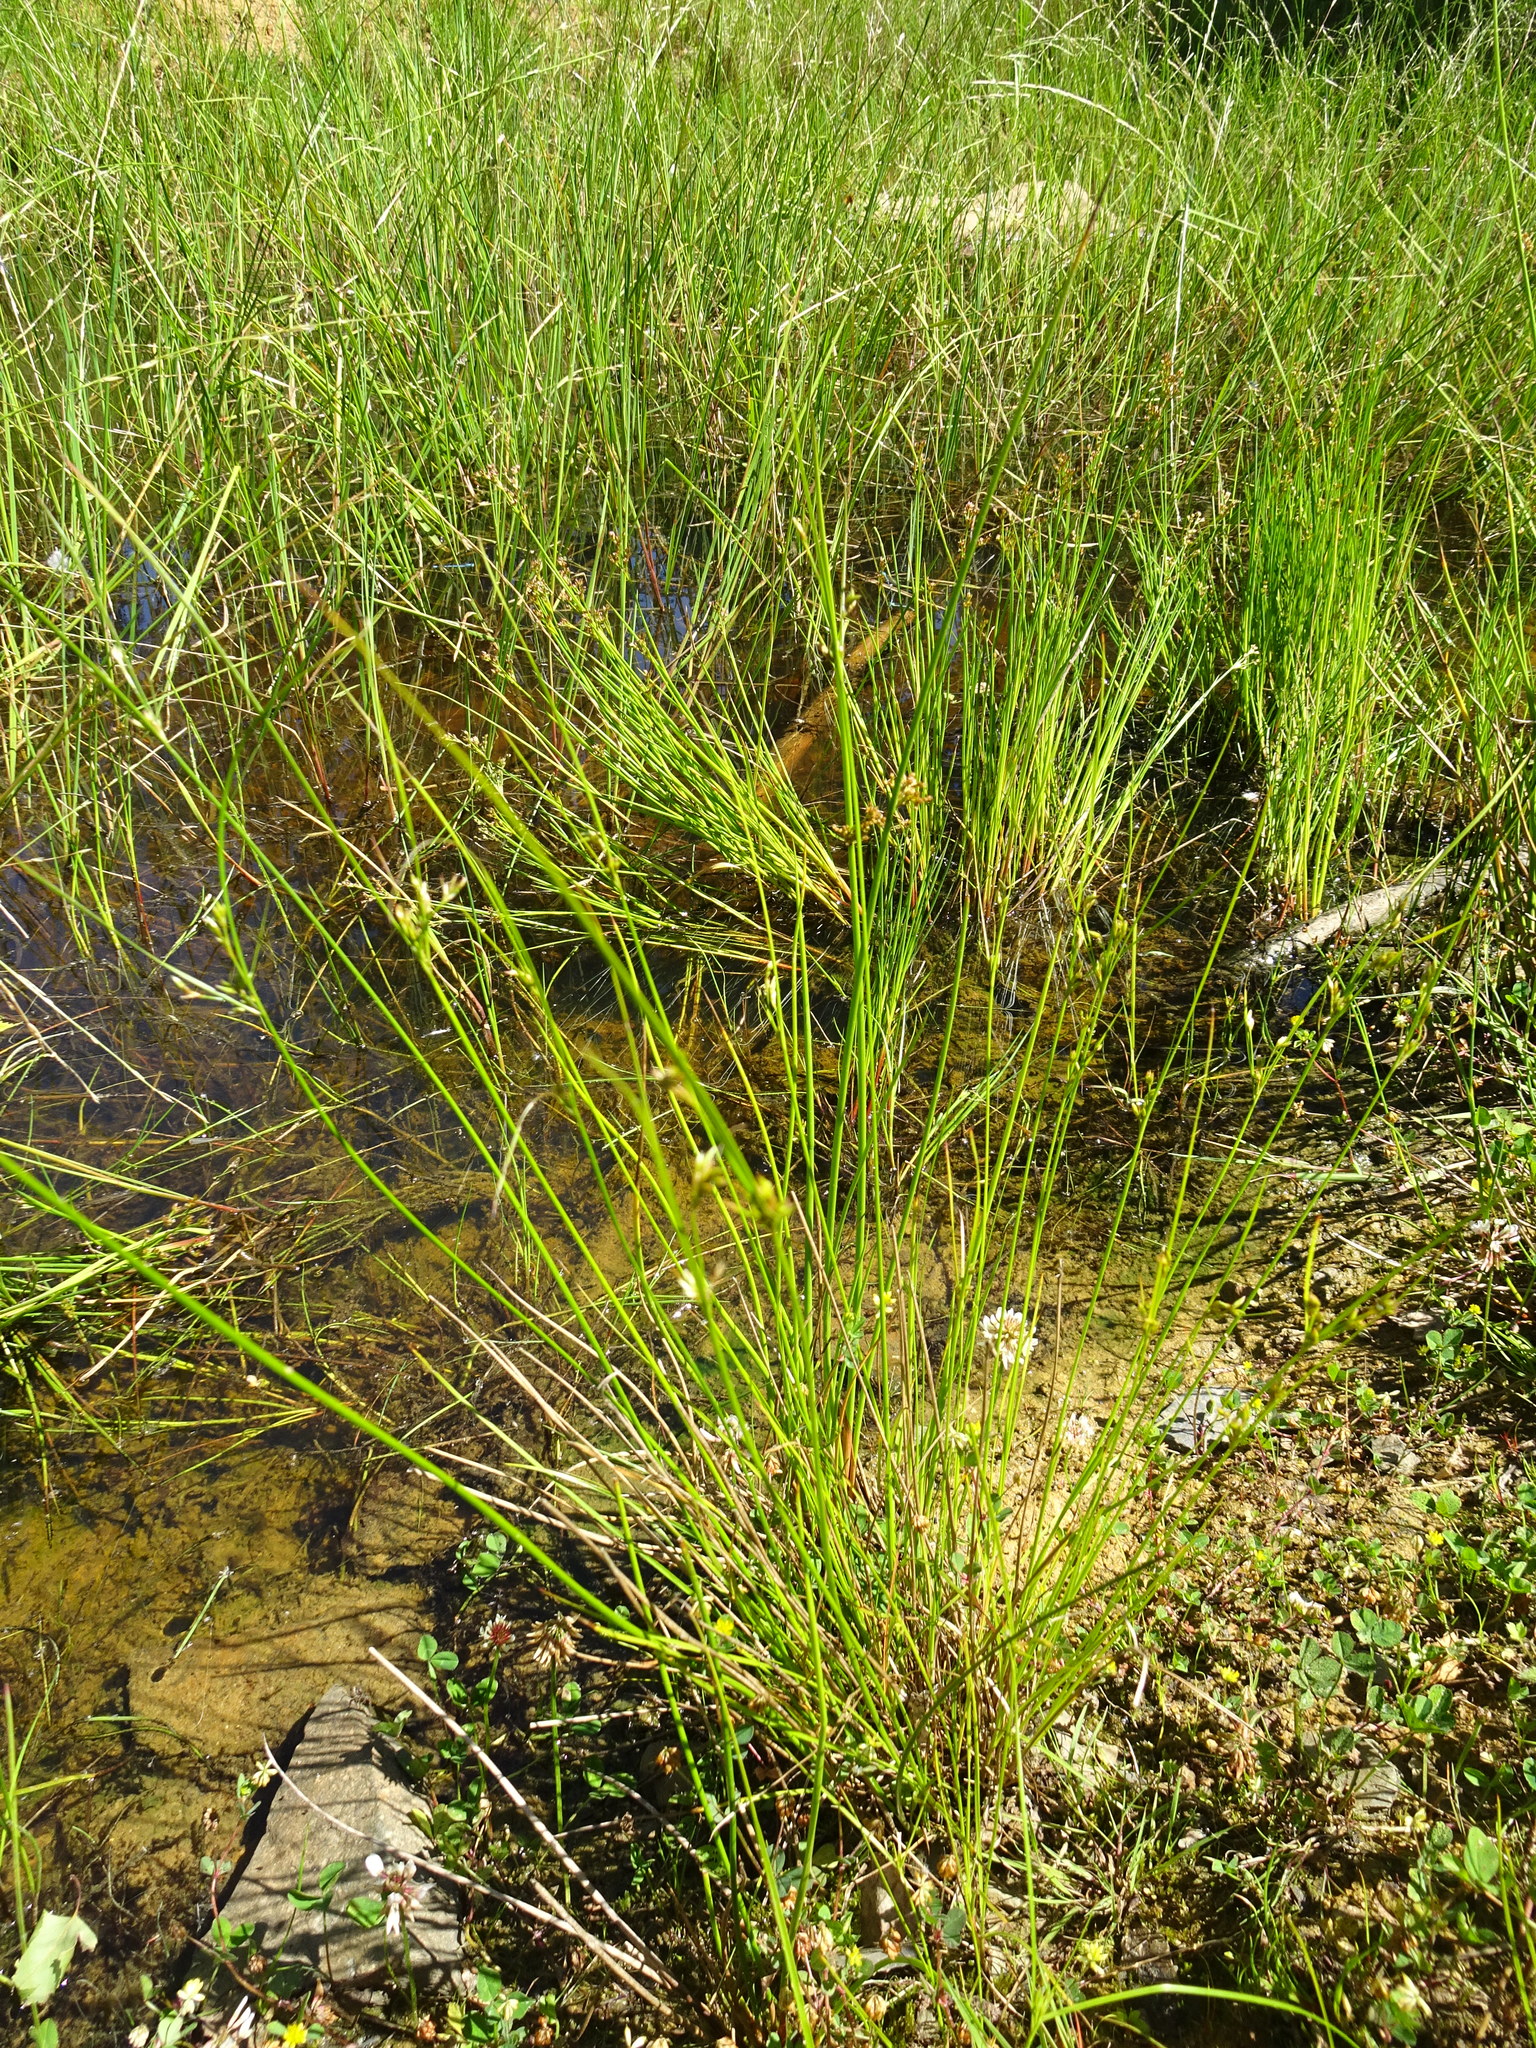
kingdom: Plantae
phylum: Tracheophyta
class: Liliopsida
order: Poales
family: Juncaceae
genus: Juncus
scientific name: Juncus tenuis
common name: Slender rush
